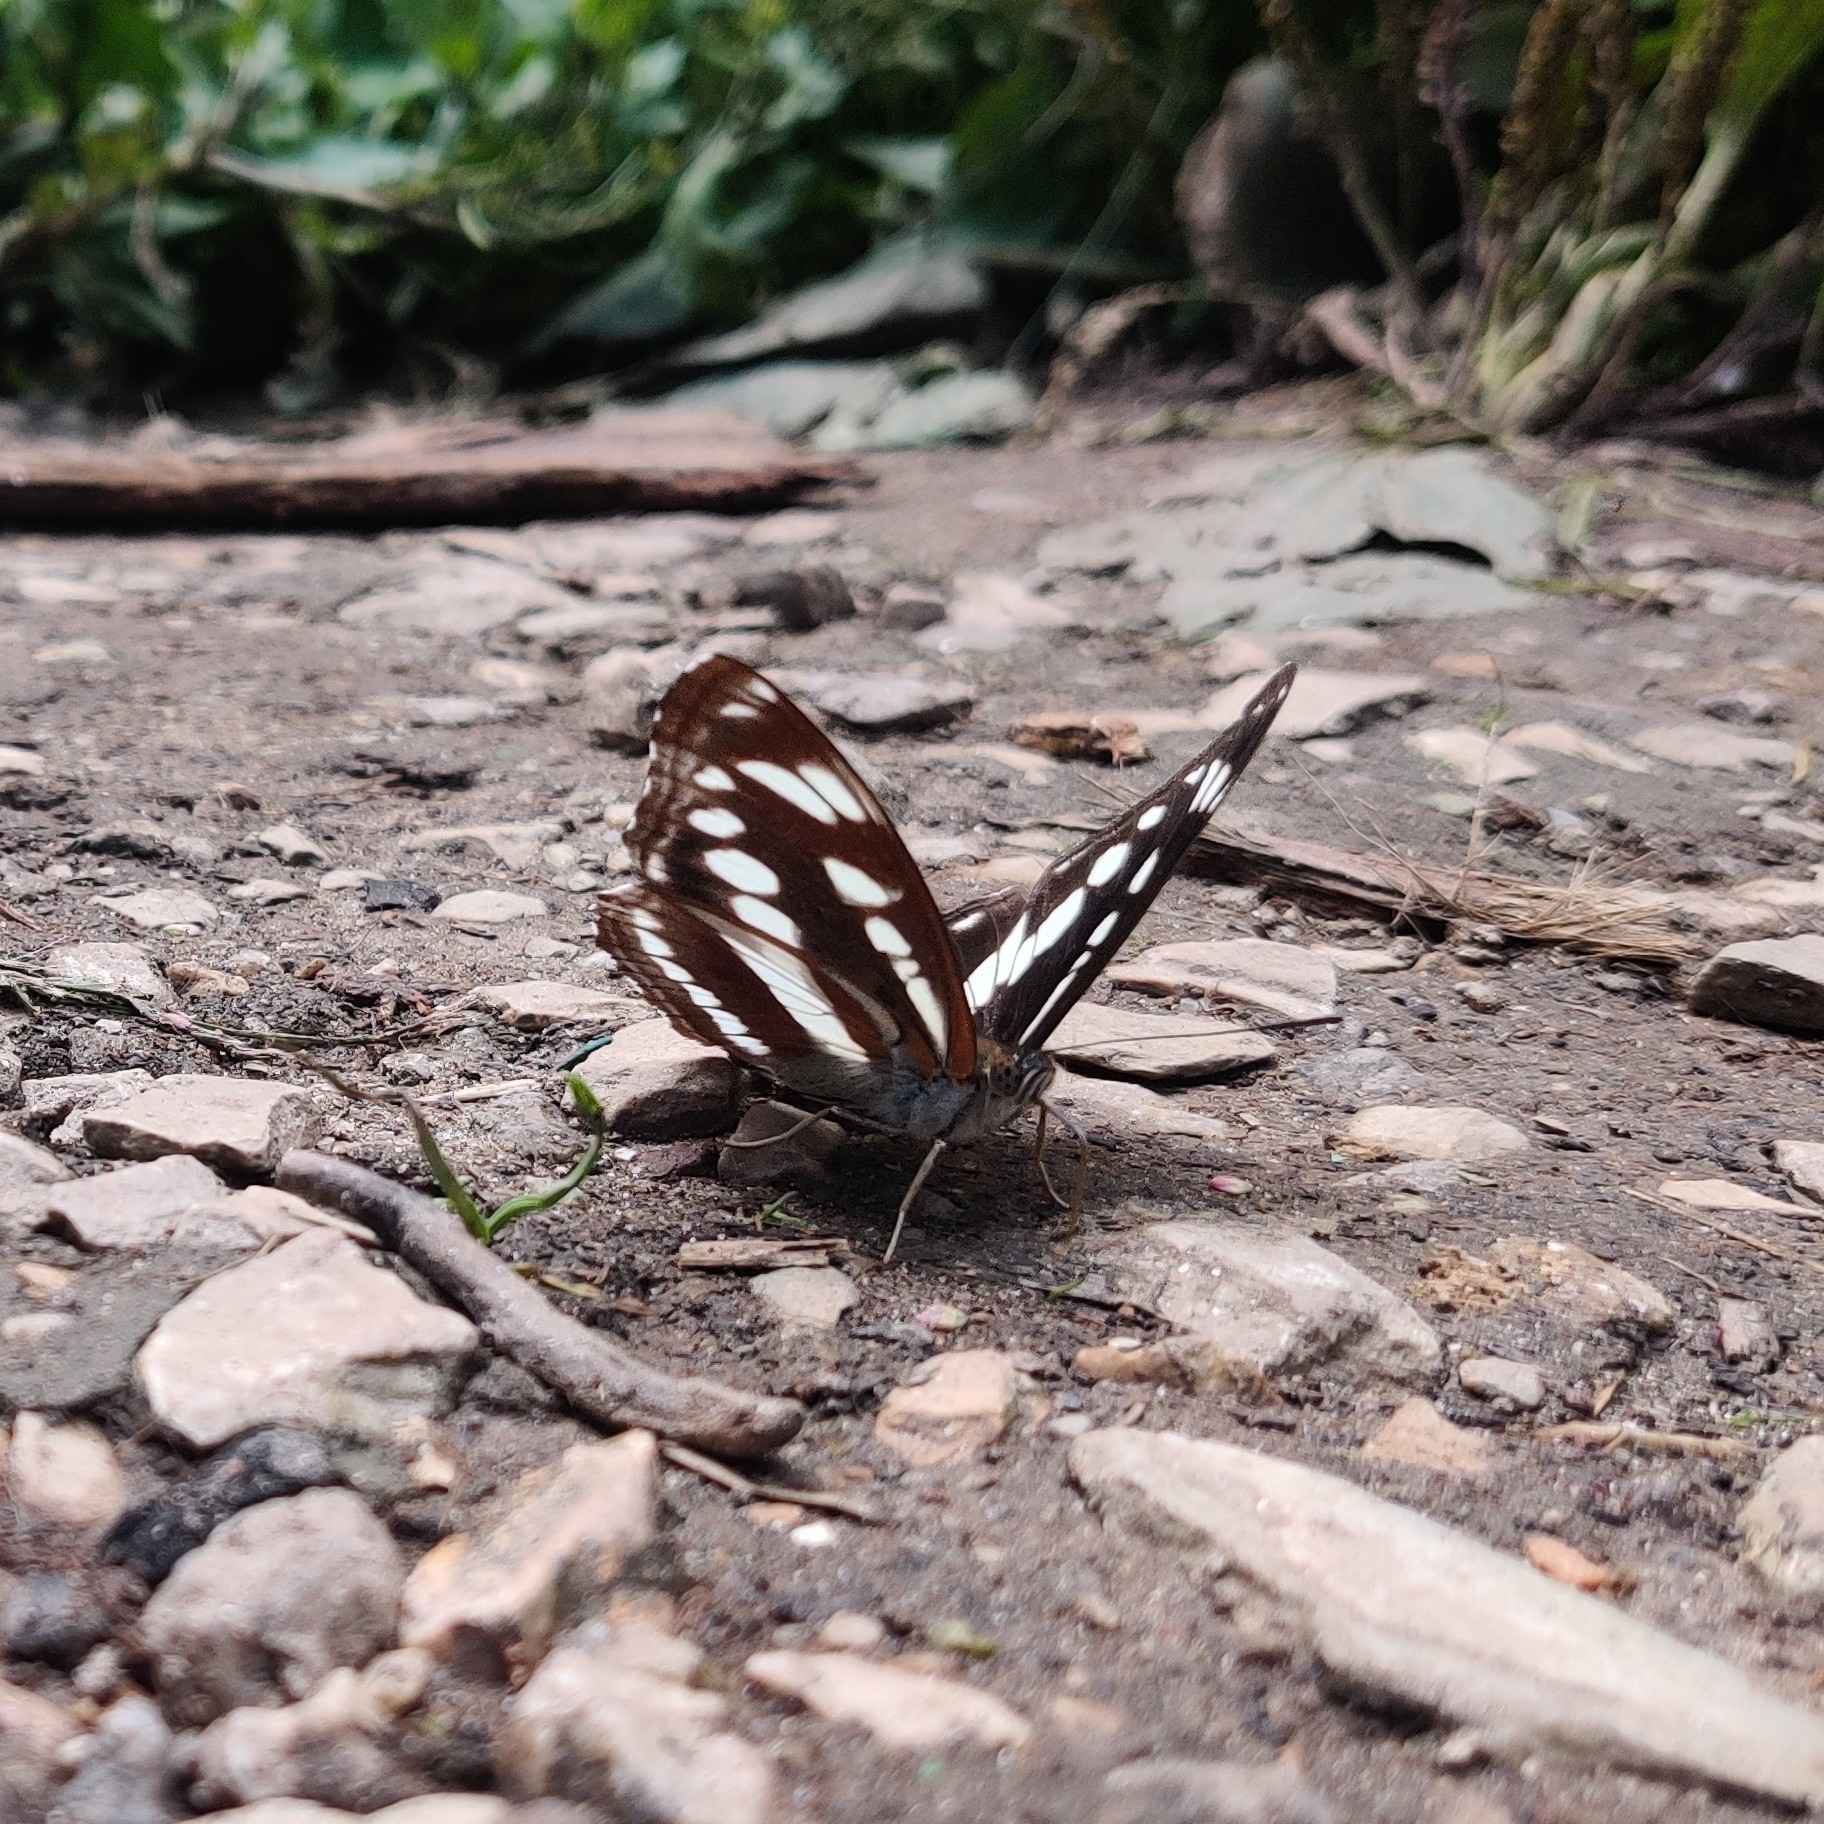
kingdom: Animalia
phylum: Arthropoda
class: Insecta
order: Lepidoptera
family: Nymphalidae
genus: Parathyma
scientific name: Parathyma opalina
